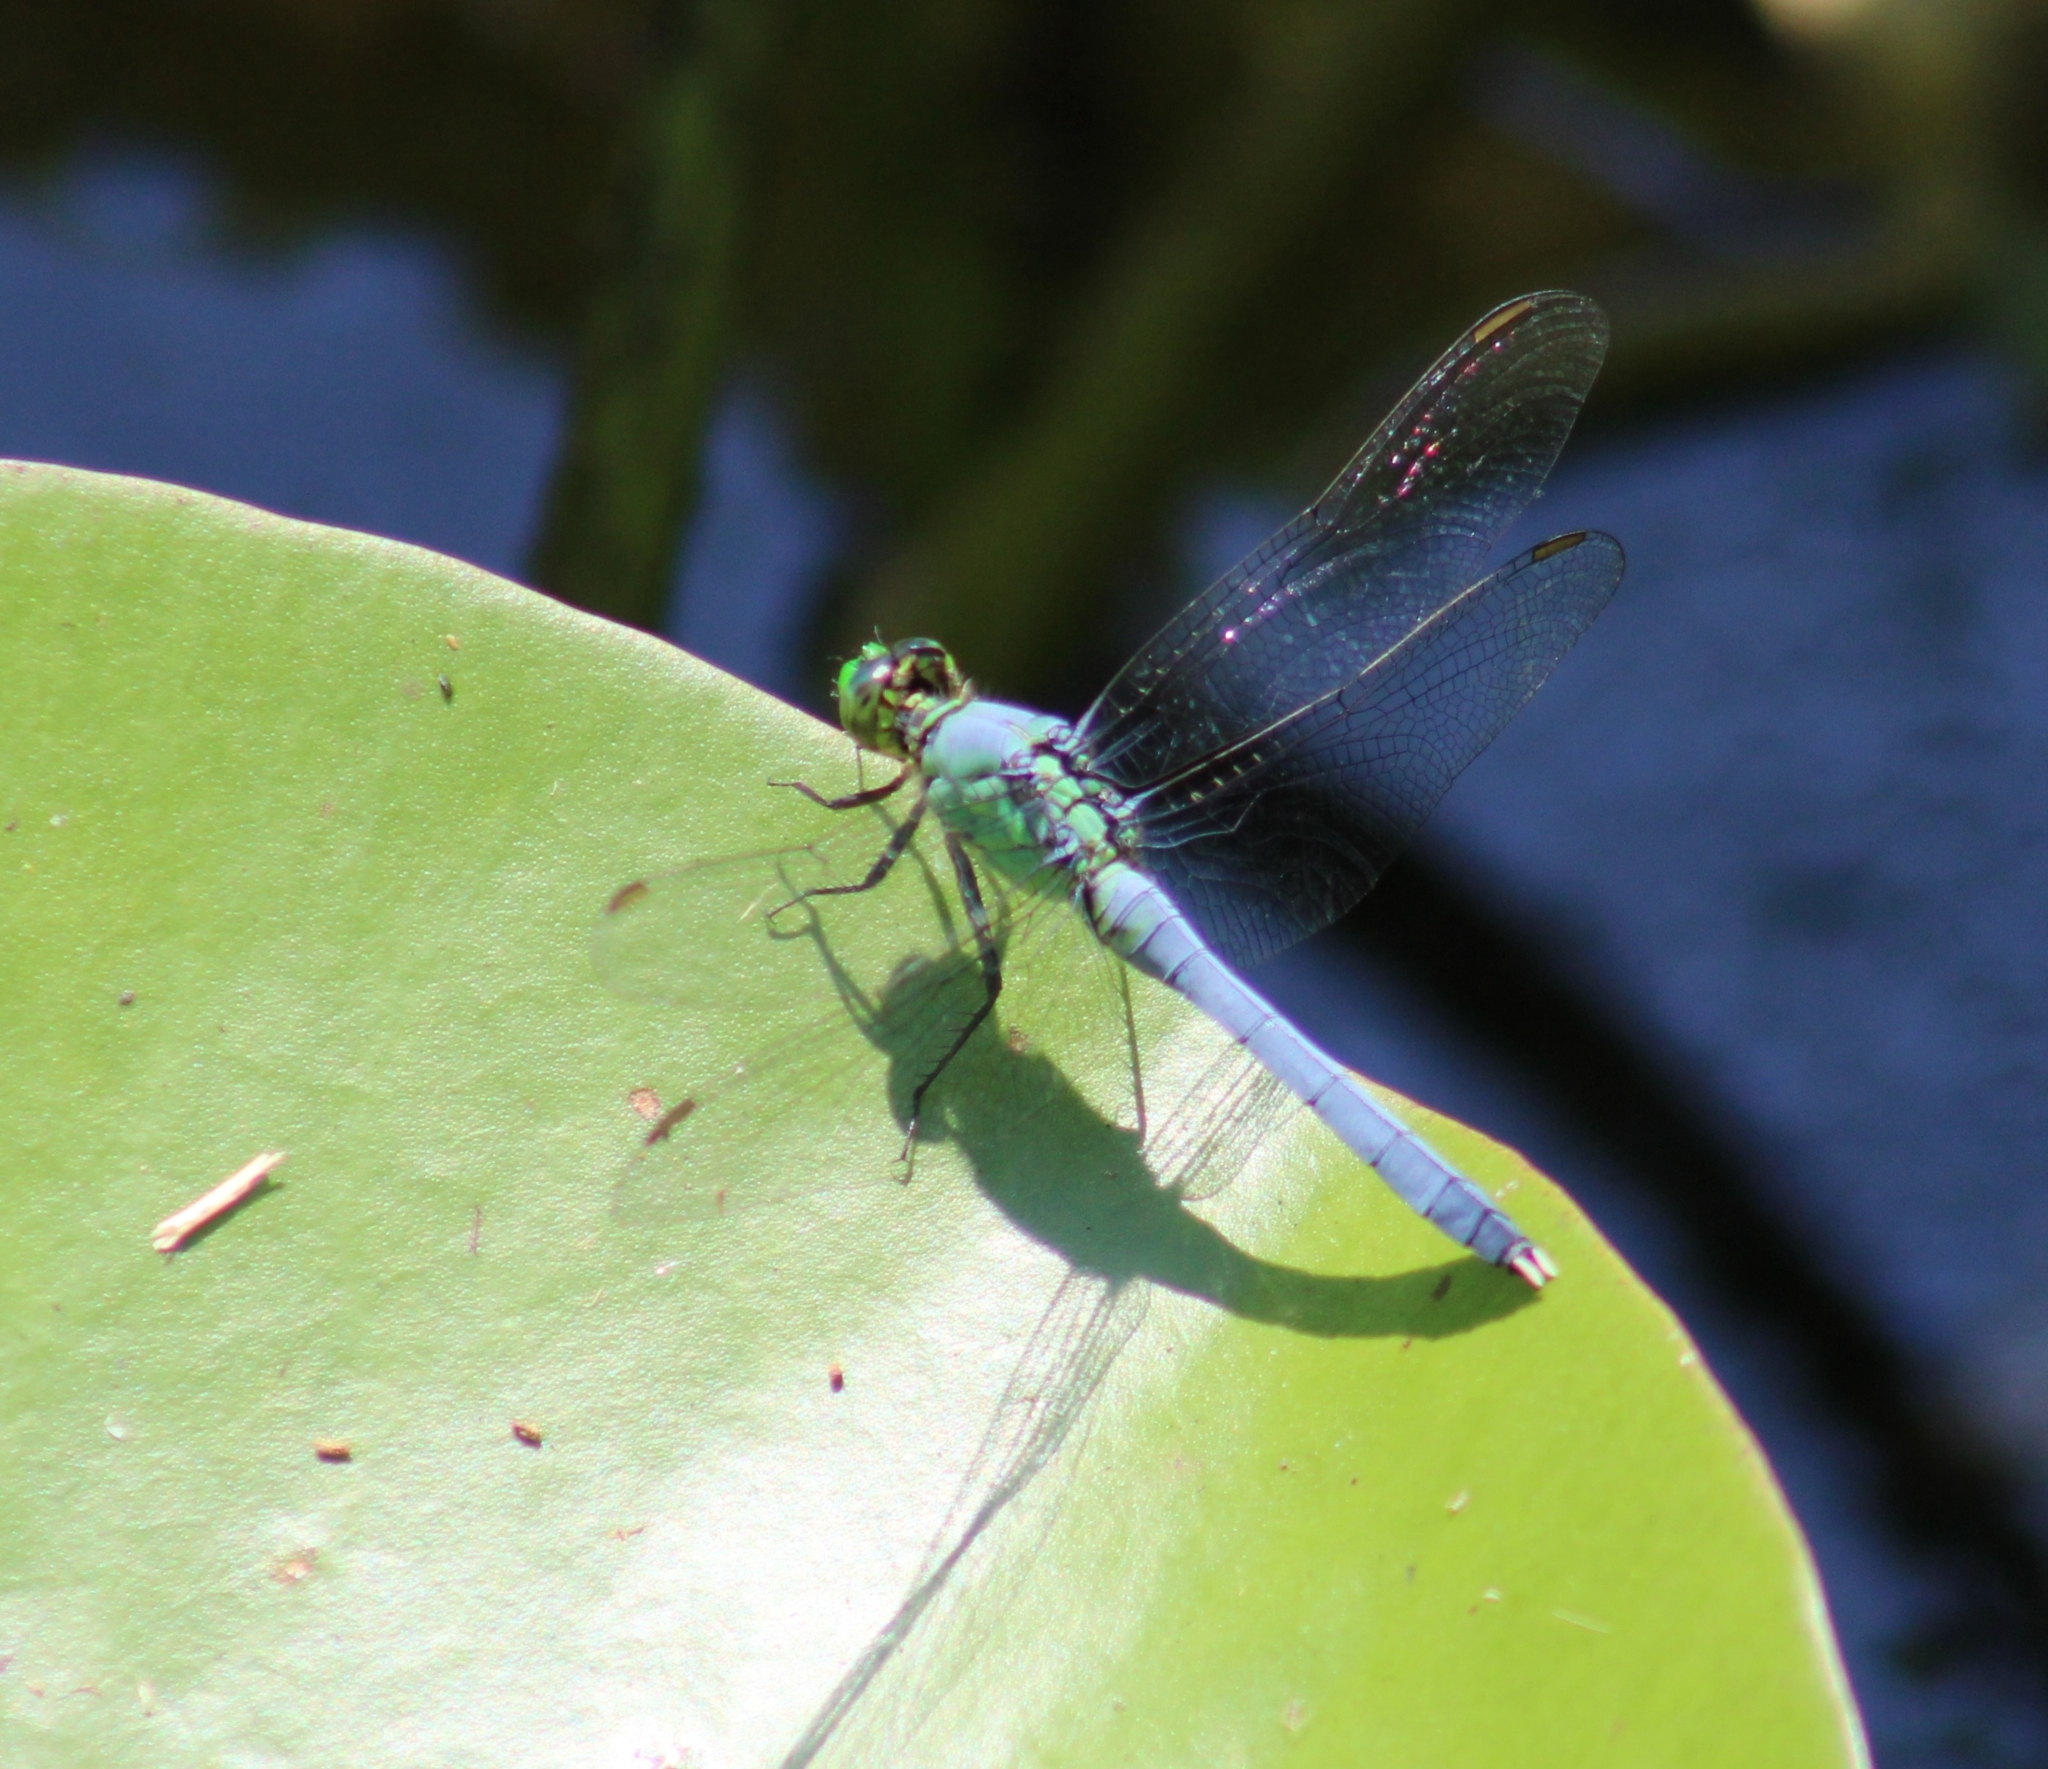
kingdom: Animalia
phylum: Arthropoda
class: Insecta
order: Odonata
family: Libellulidae
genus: Erythemis
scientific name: Erythemis simplicicollis
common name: Eastern pondhawk
